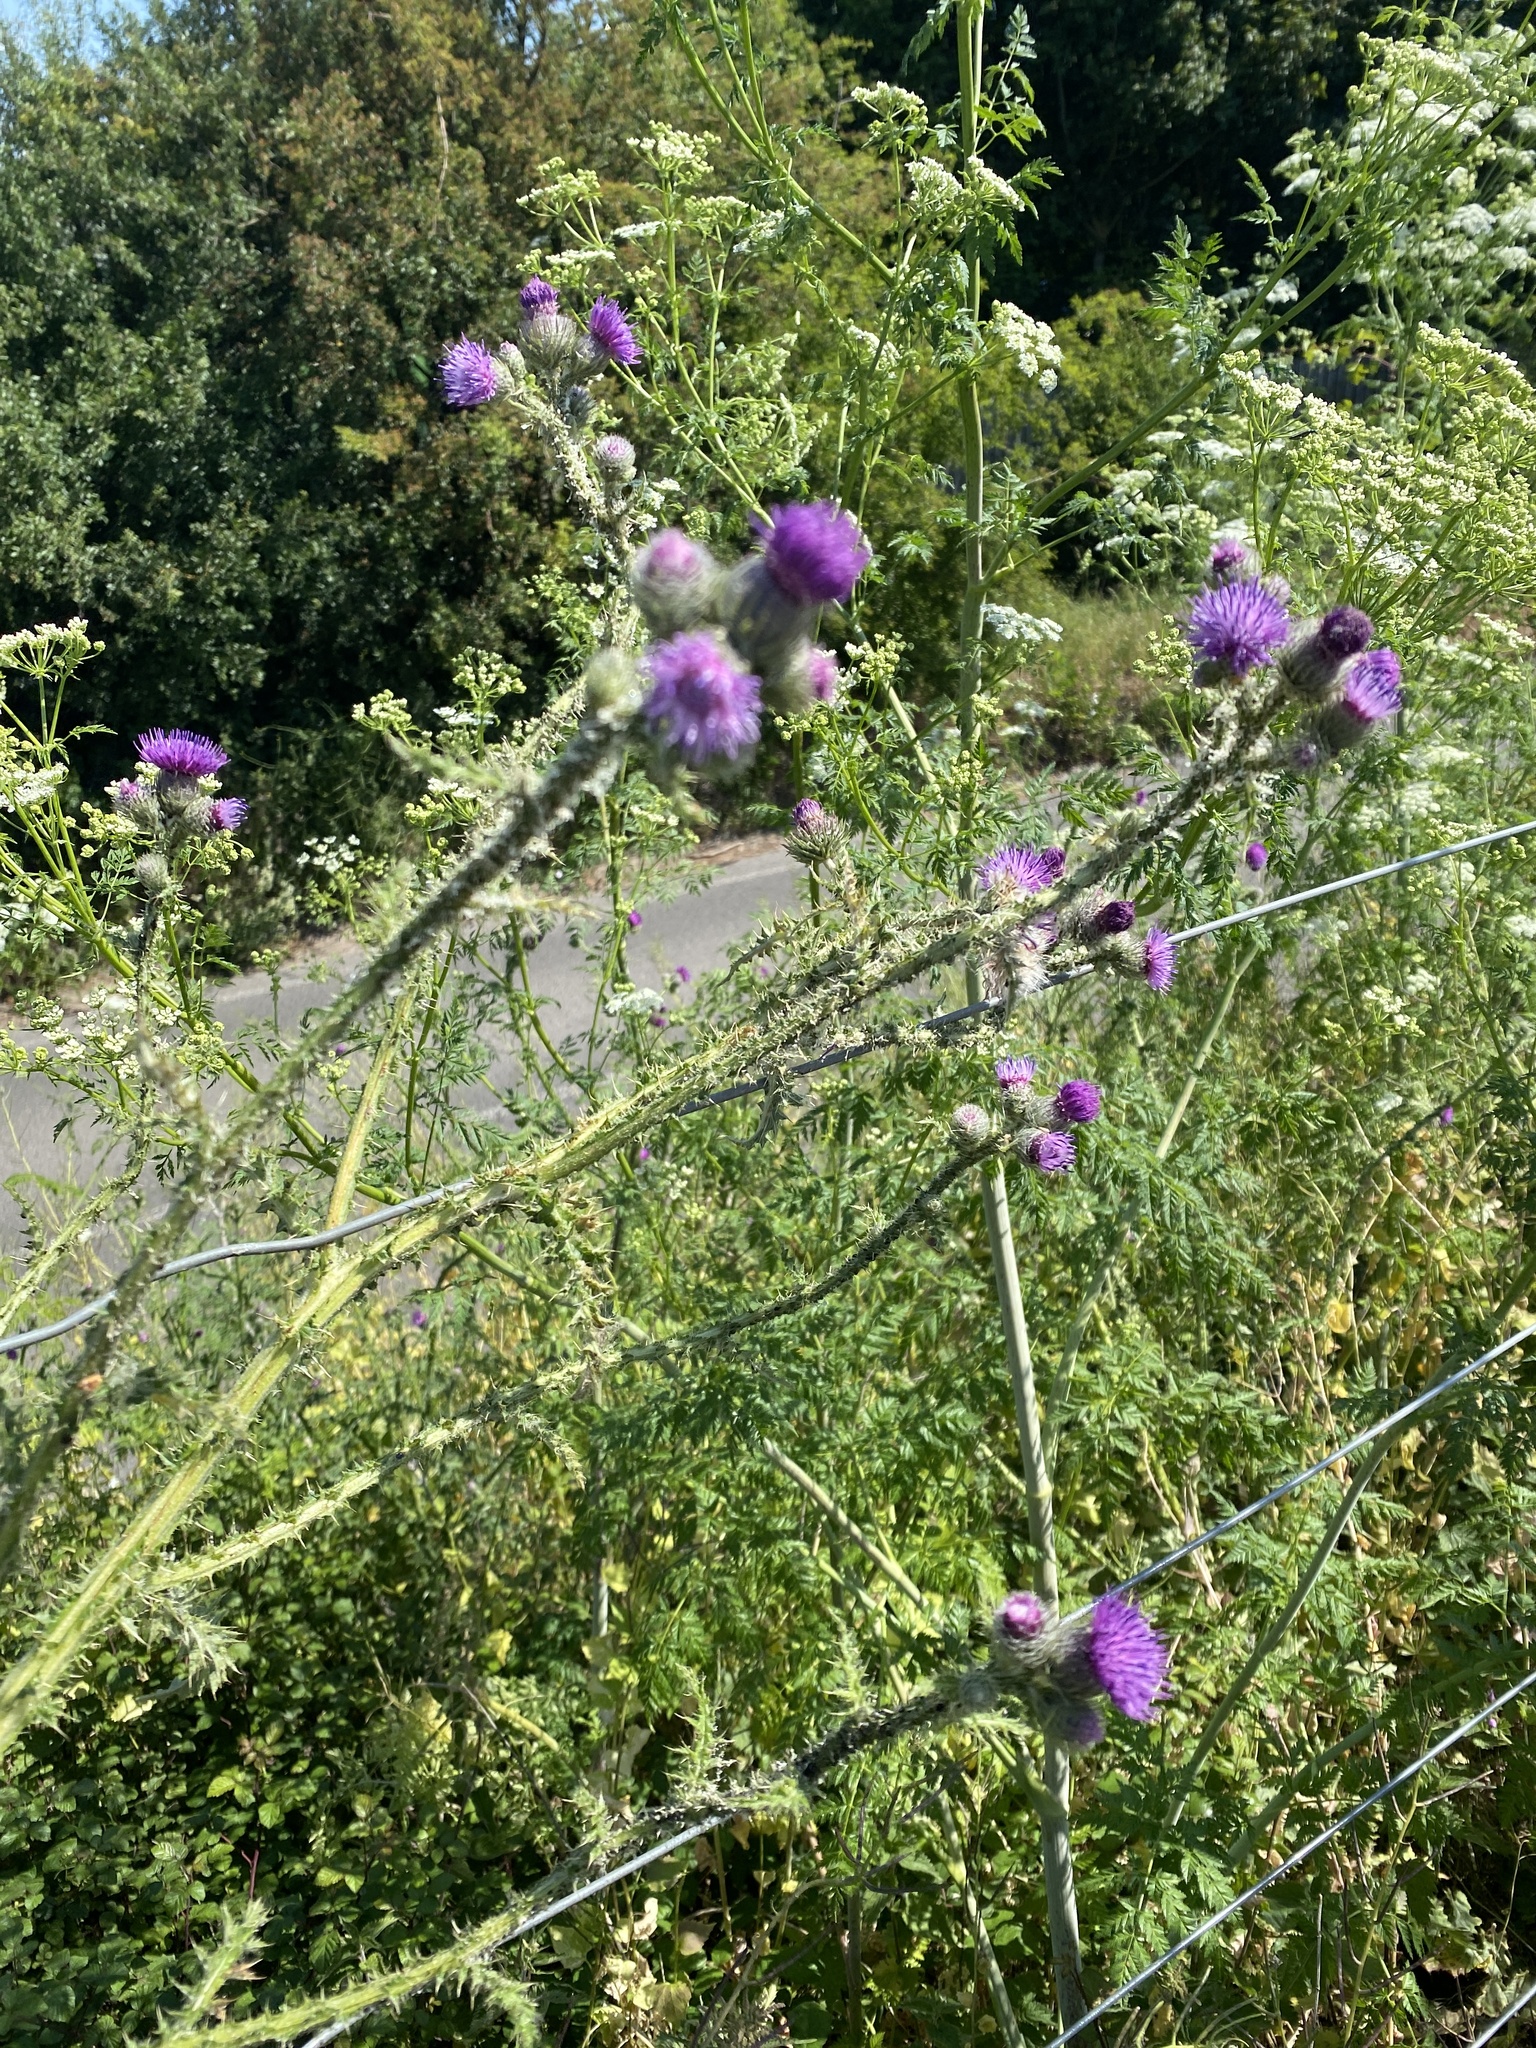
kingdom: Plantae
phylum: Tracheophyta
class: Magnoliopsida
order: Asterales
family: Asteraceae
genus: Carduus
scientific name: Carduus crispus
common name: Welted thistle
